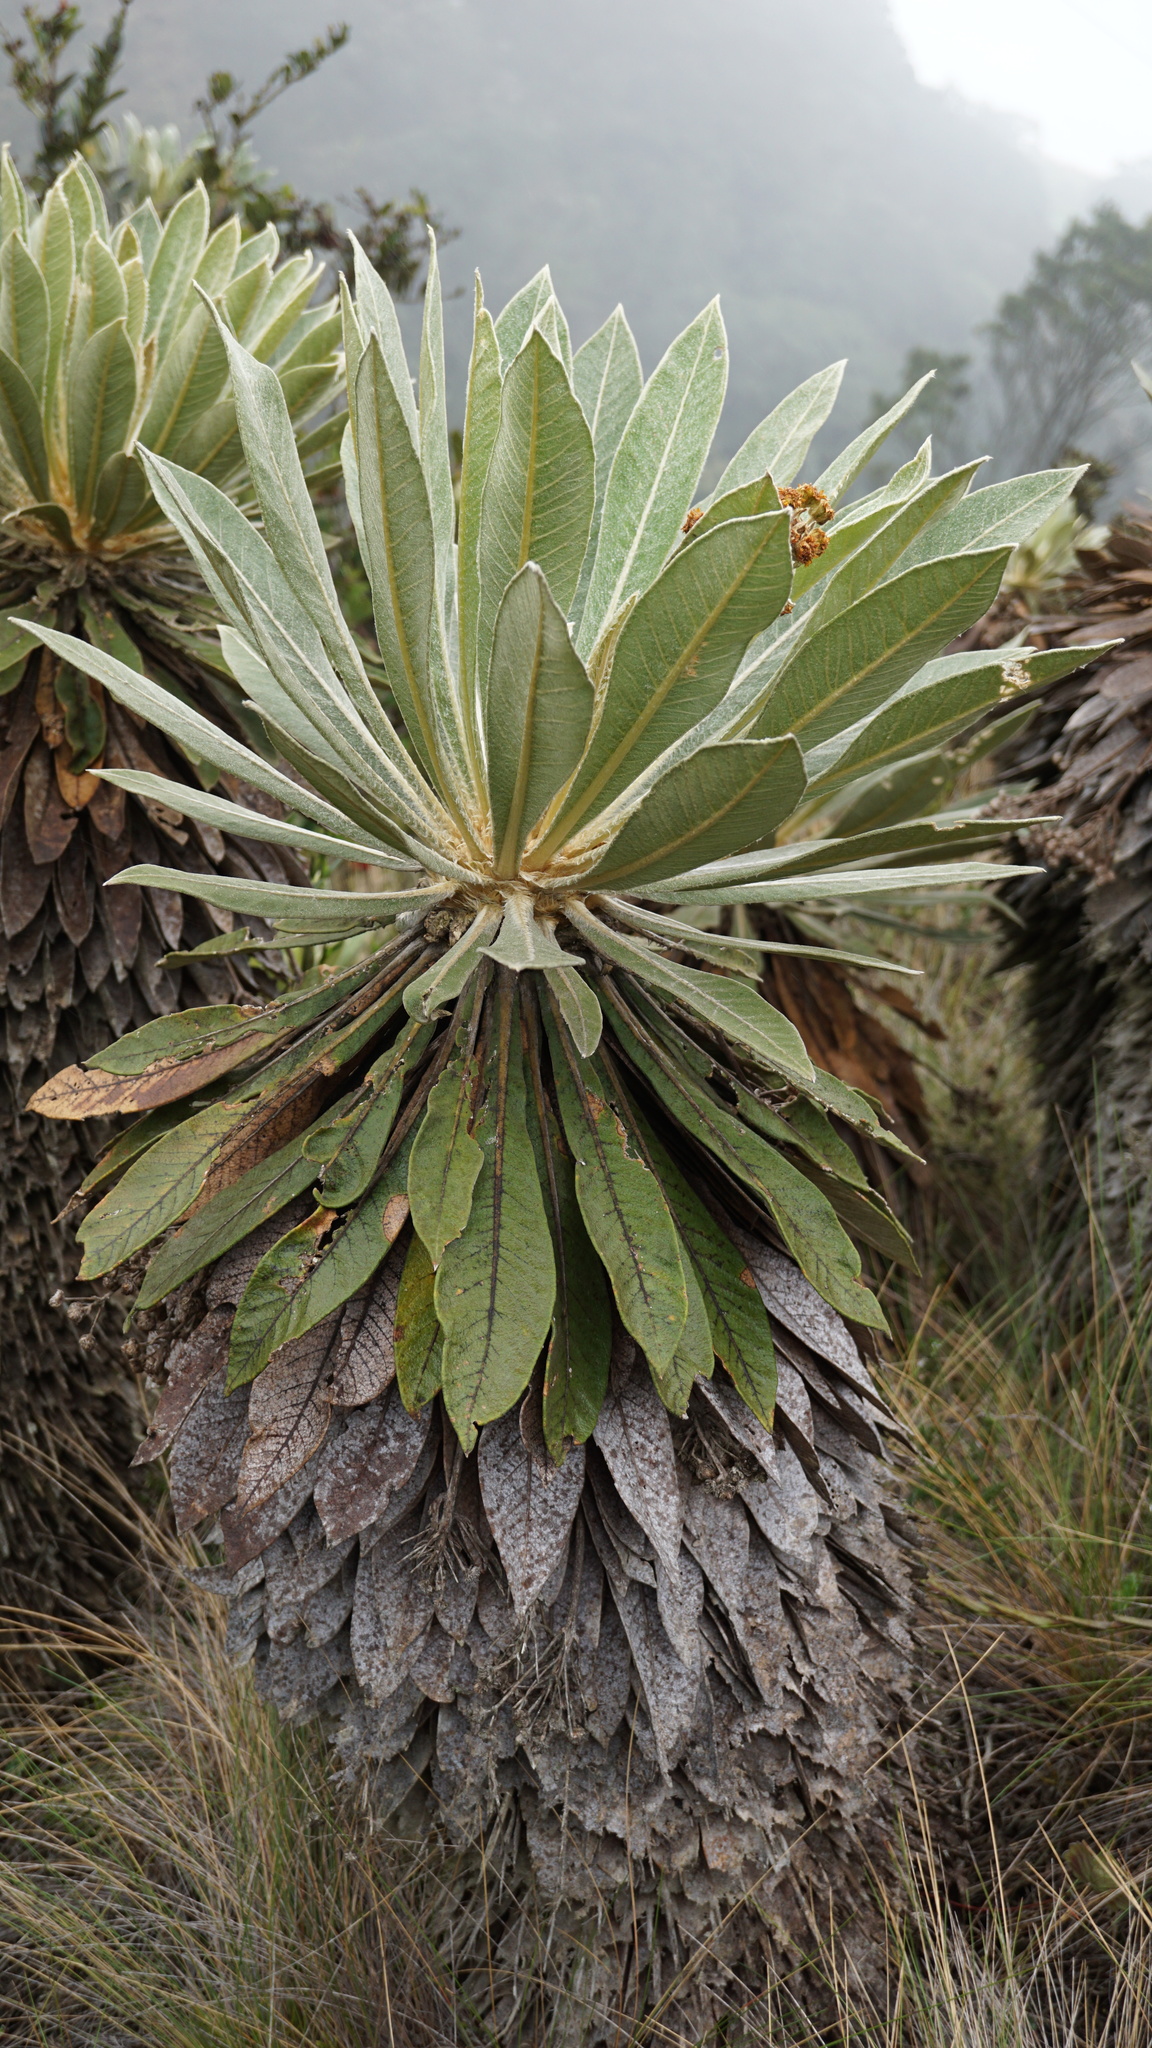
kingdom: Plantae
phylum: Tracheophyta
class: Magnoliopsida
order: Asterales
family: Asteraceae
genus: Espeletia
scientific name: Espeletia corymbosa
